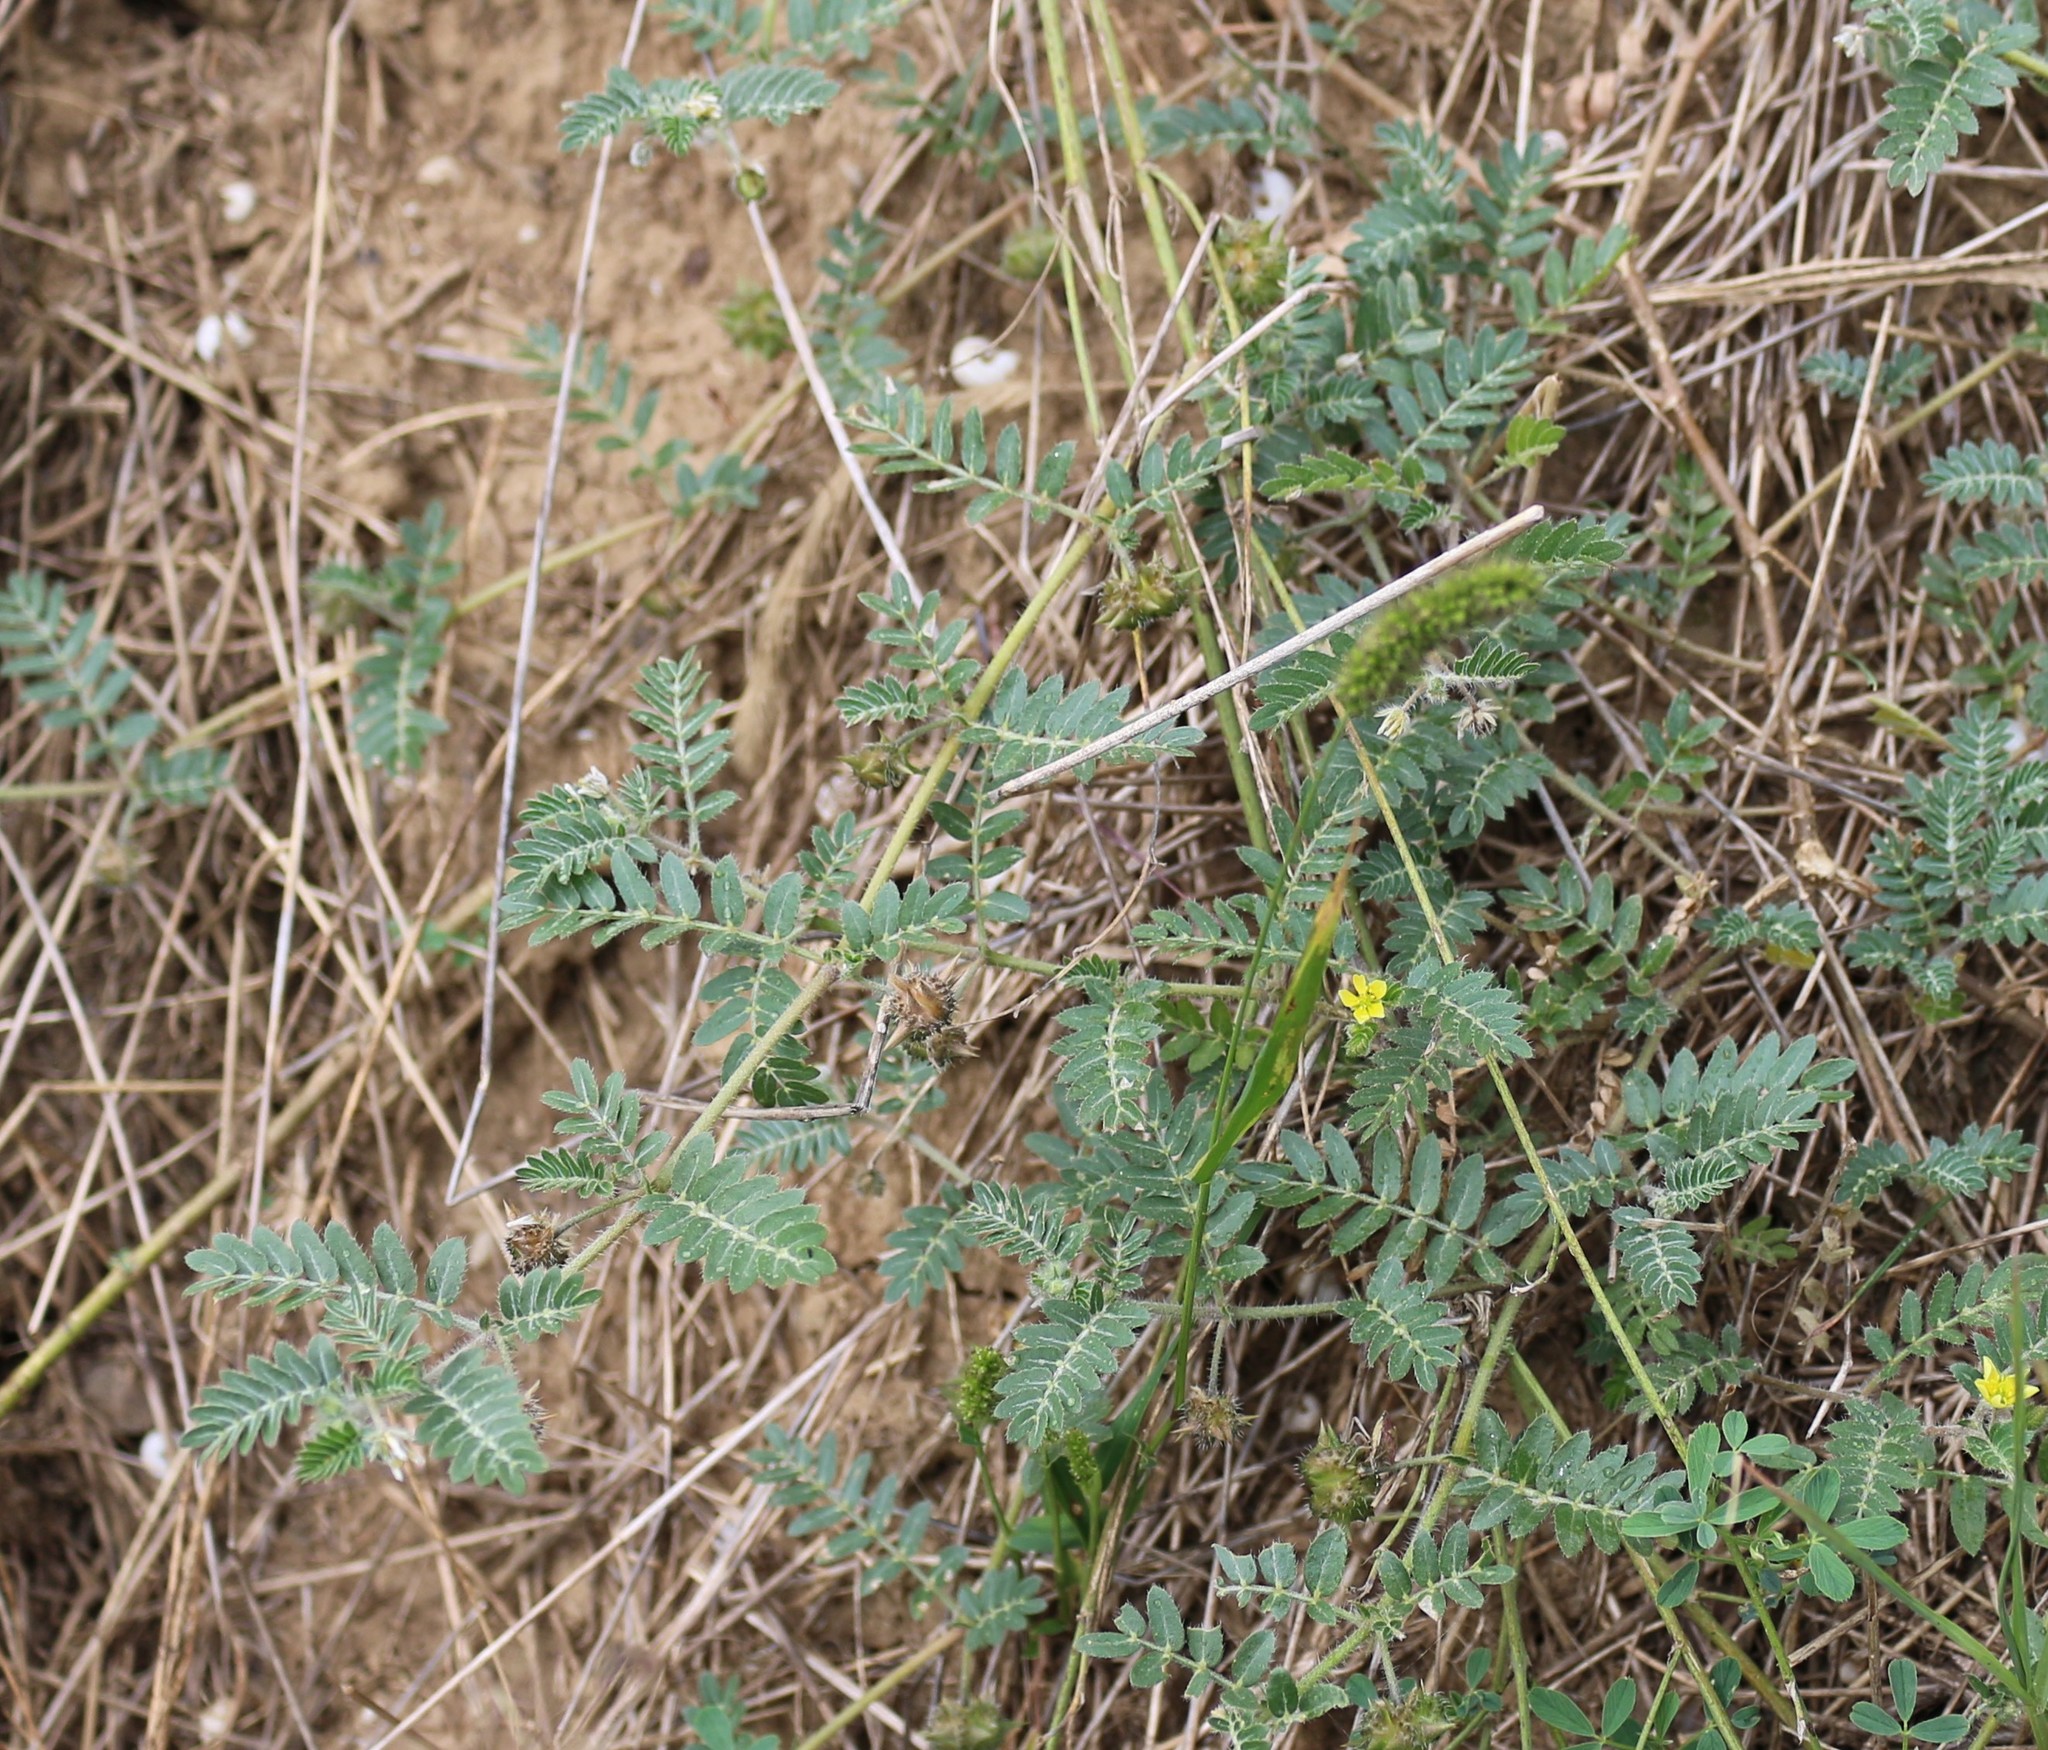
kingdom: Plantae
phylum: Tracheophyta
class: Magnoliopsida
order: Zygophyllales
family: Zygophyllaceae
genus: Tribulus
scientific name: Tribulus terrestris
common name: Puncturevine
